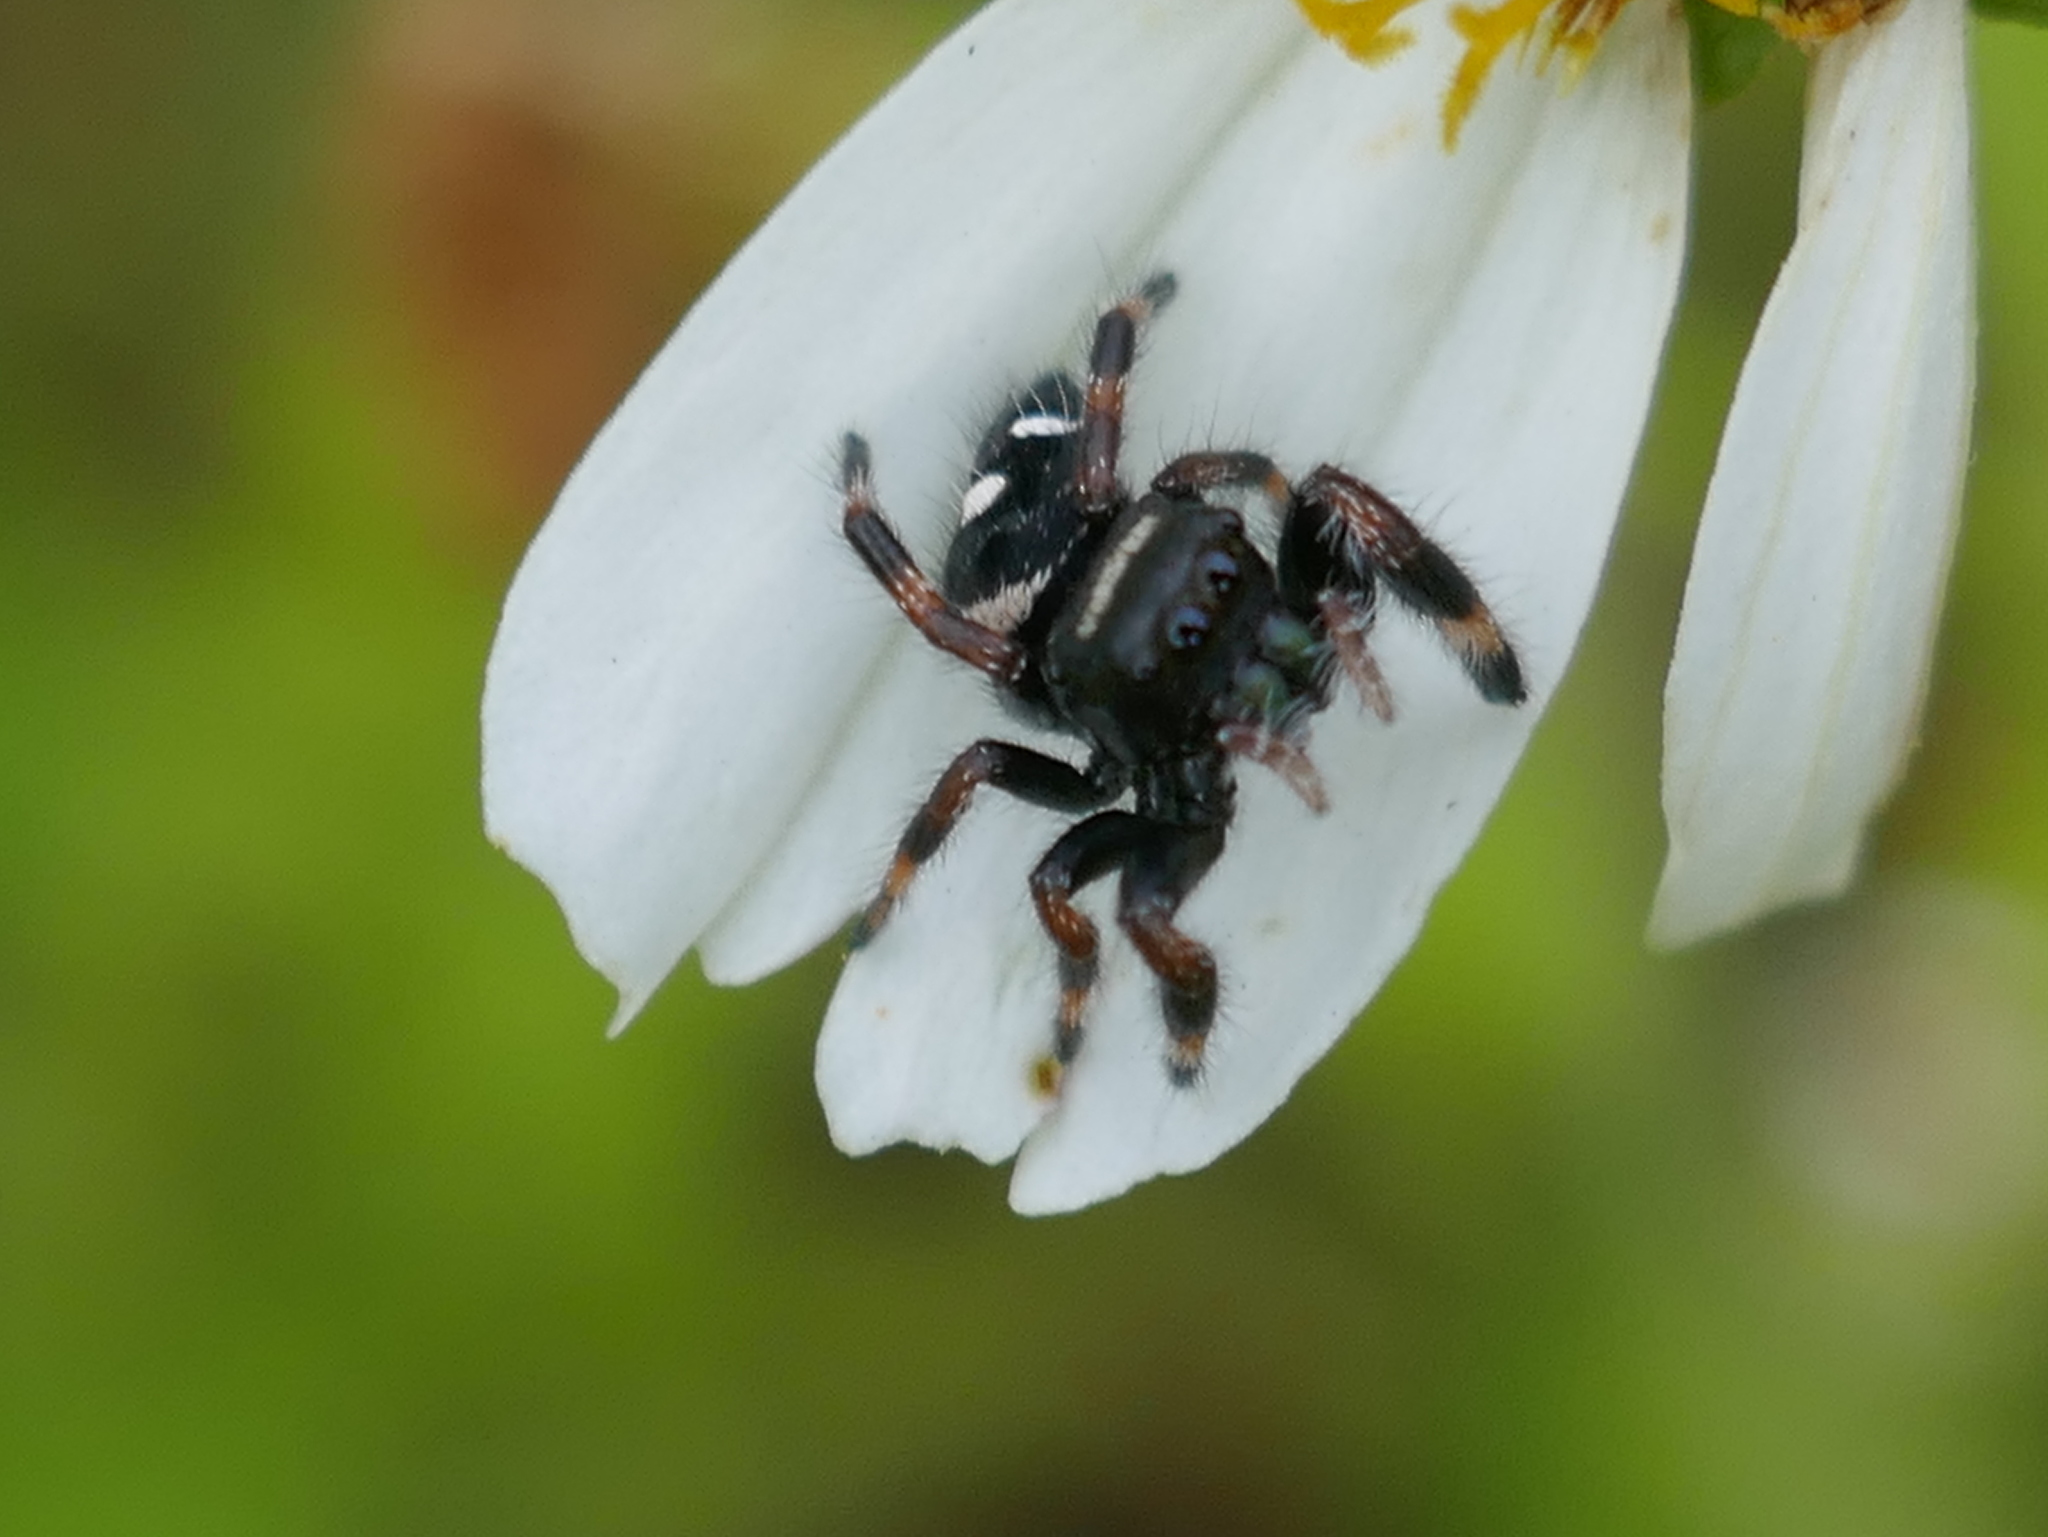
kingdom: Animalia
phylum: Arthropoda
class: Arachnida
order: Araneae
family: Salticidae
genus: Phidippus
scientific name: Phidippus regius
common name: Regal jumper
